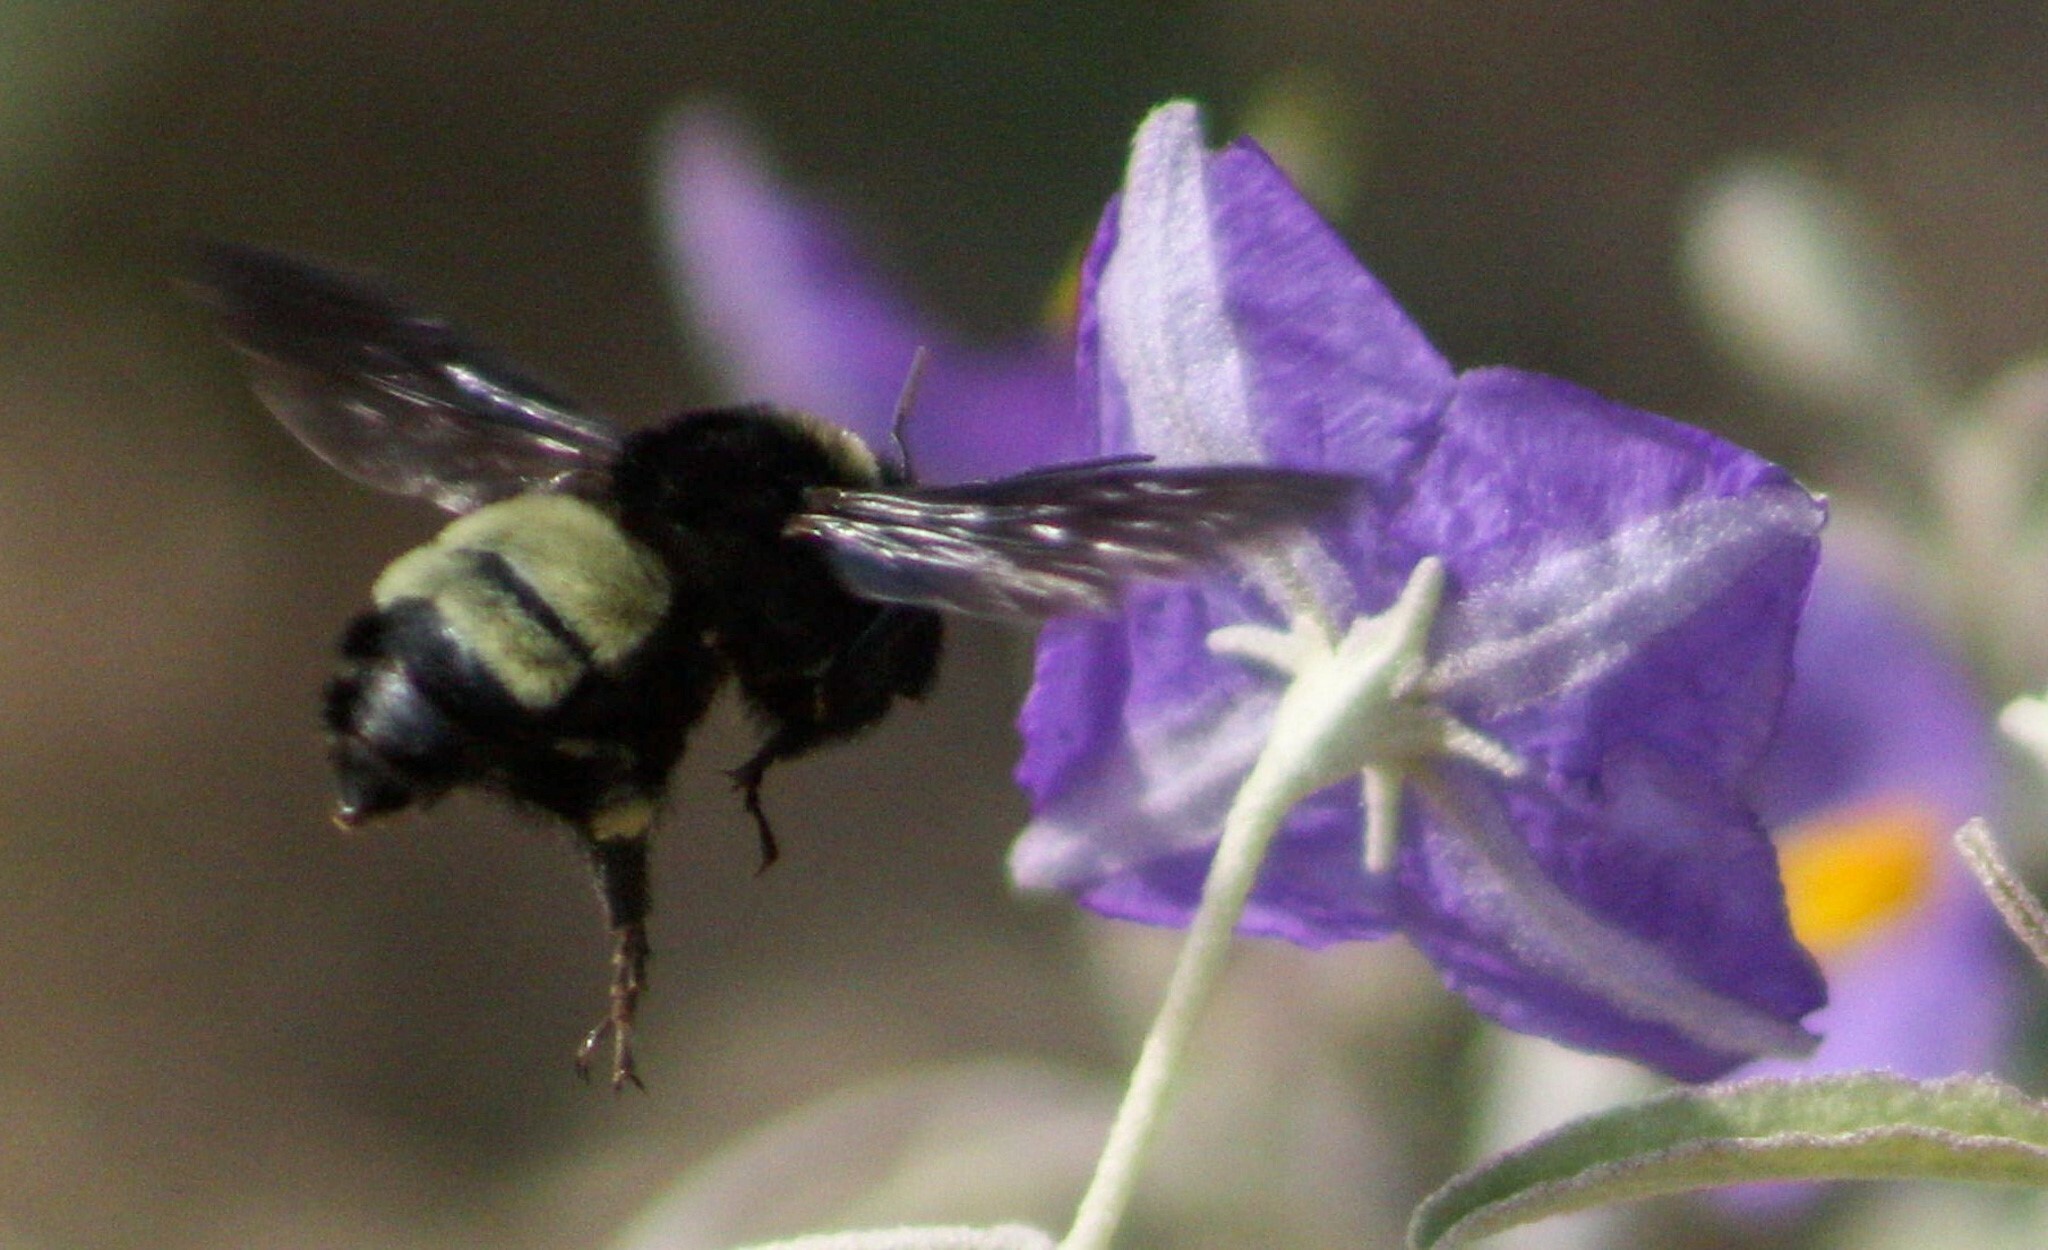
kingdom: Animalia
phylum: Arthropoda
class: Insecta
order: Hymenoptera
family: Apidae
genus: Bombus
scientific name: Bombus pensylvanicus
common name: Bumble bee
